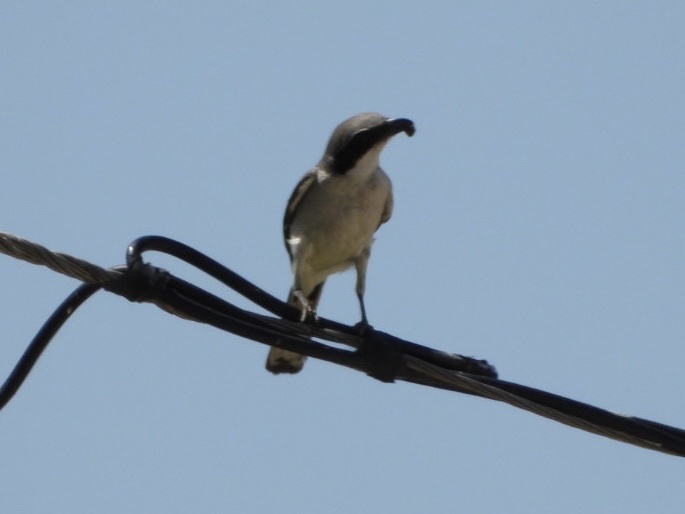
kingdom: Animalia
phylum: Chordata
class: Aves
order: Passeriformes
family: Laniidae
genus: Lanius
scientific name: Lanius ludovicianus
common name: Loggerhead shrike
